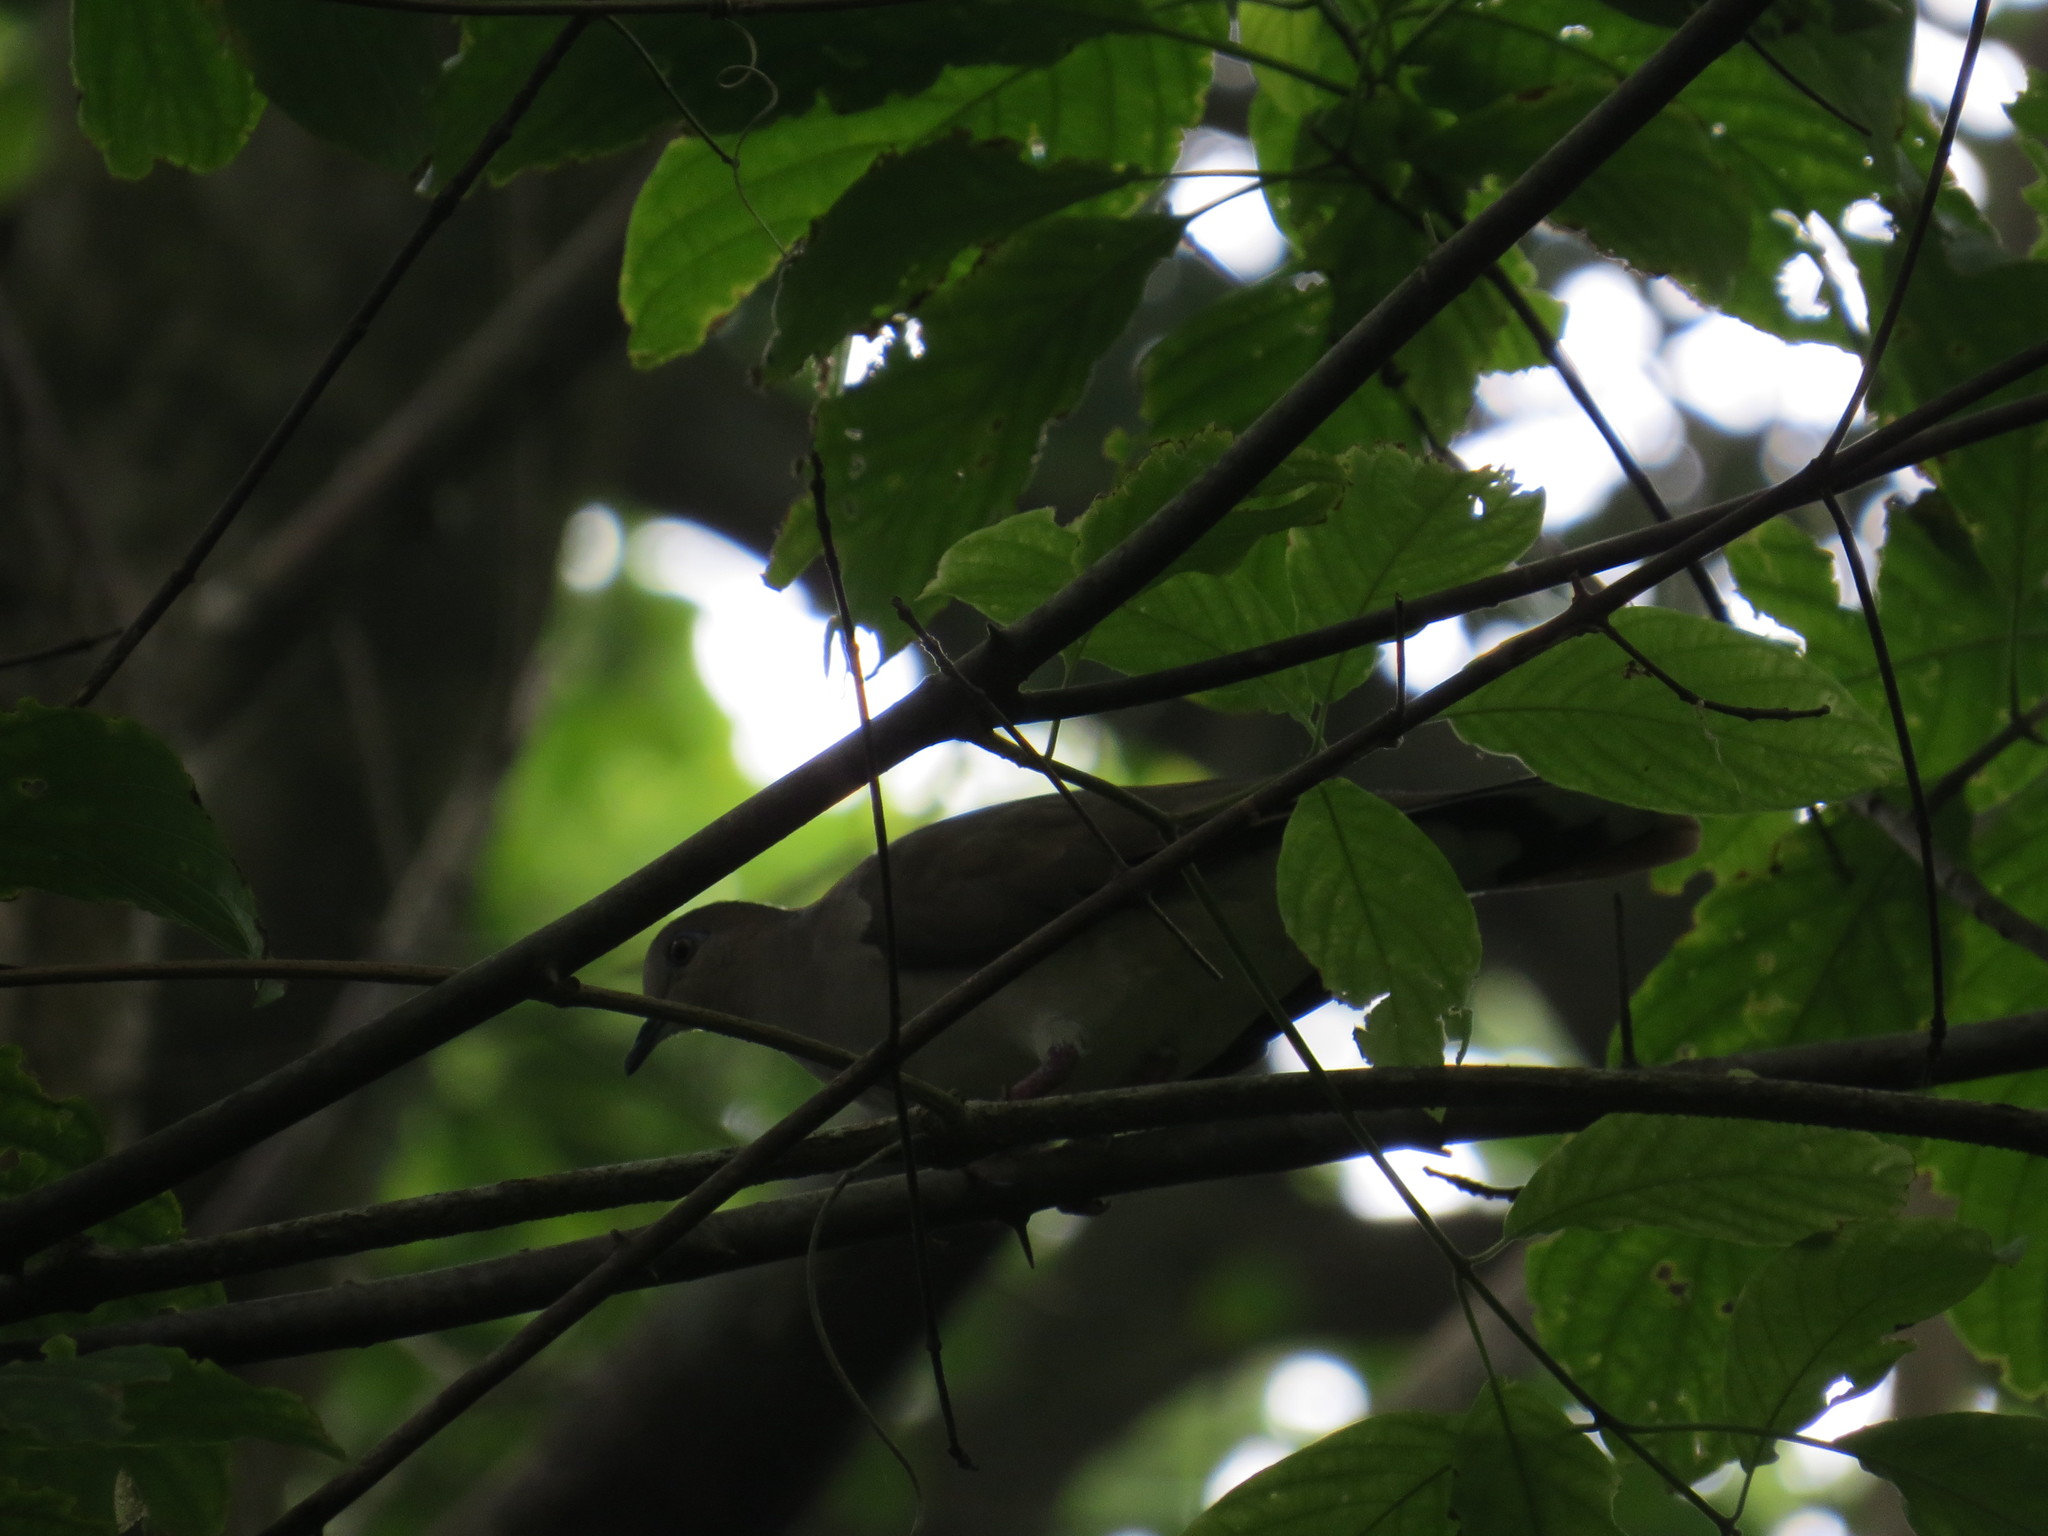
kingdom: Animalia
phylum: Chordata
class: Aves
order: Columbiformes
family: Columbidae
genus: Leptotila
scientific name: Leptotila verreauxi
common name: White-tipped dove
